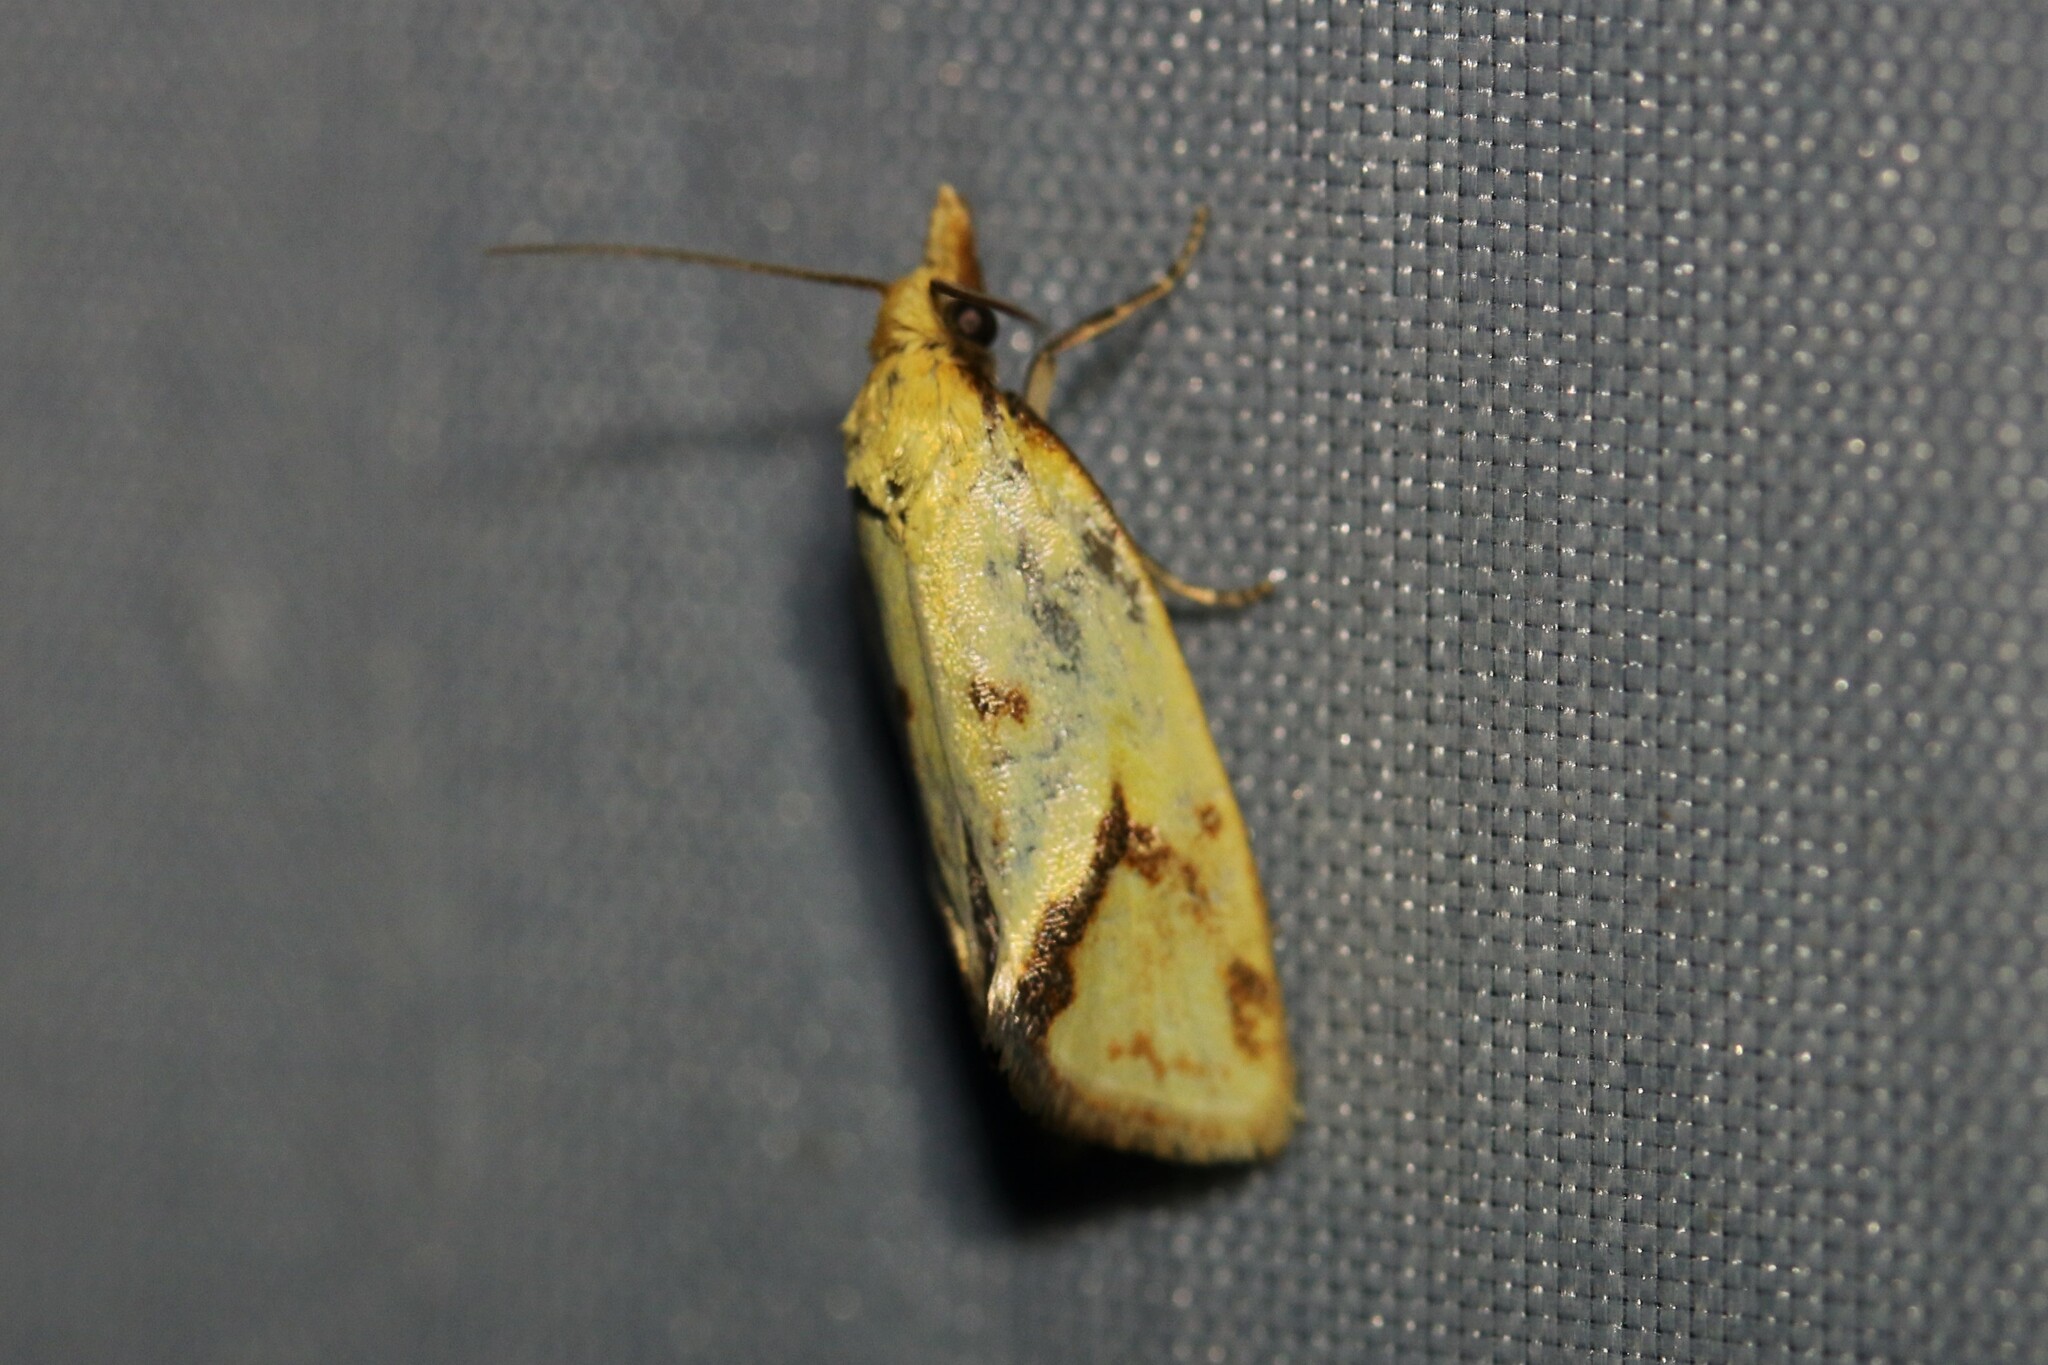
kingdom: Animalia
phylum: Arthropoda
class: Insecta
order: Lepidoptera
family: Tortricidae
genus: Agapeta
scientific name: Agapeta hamana
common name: Common yellow conch
